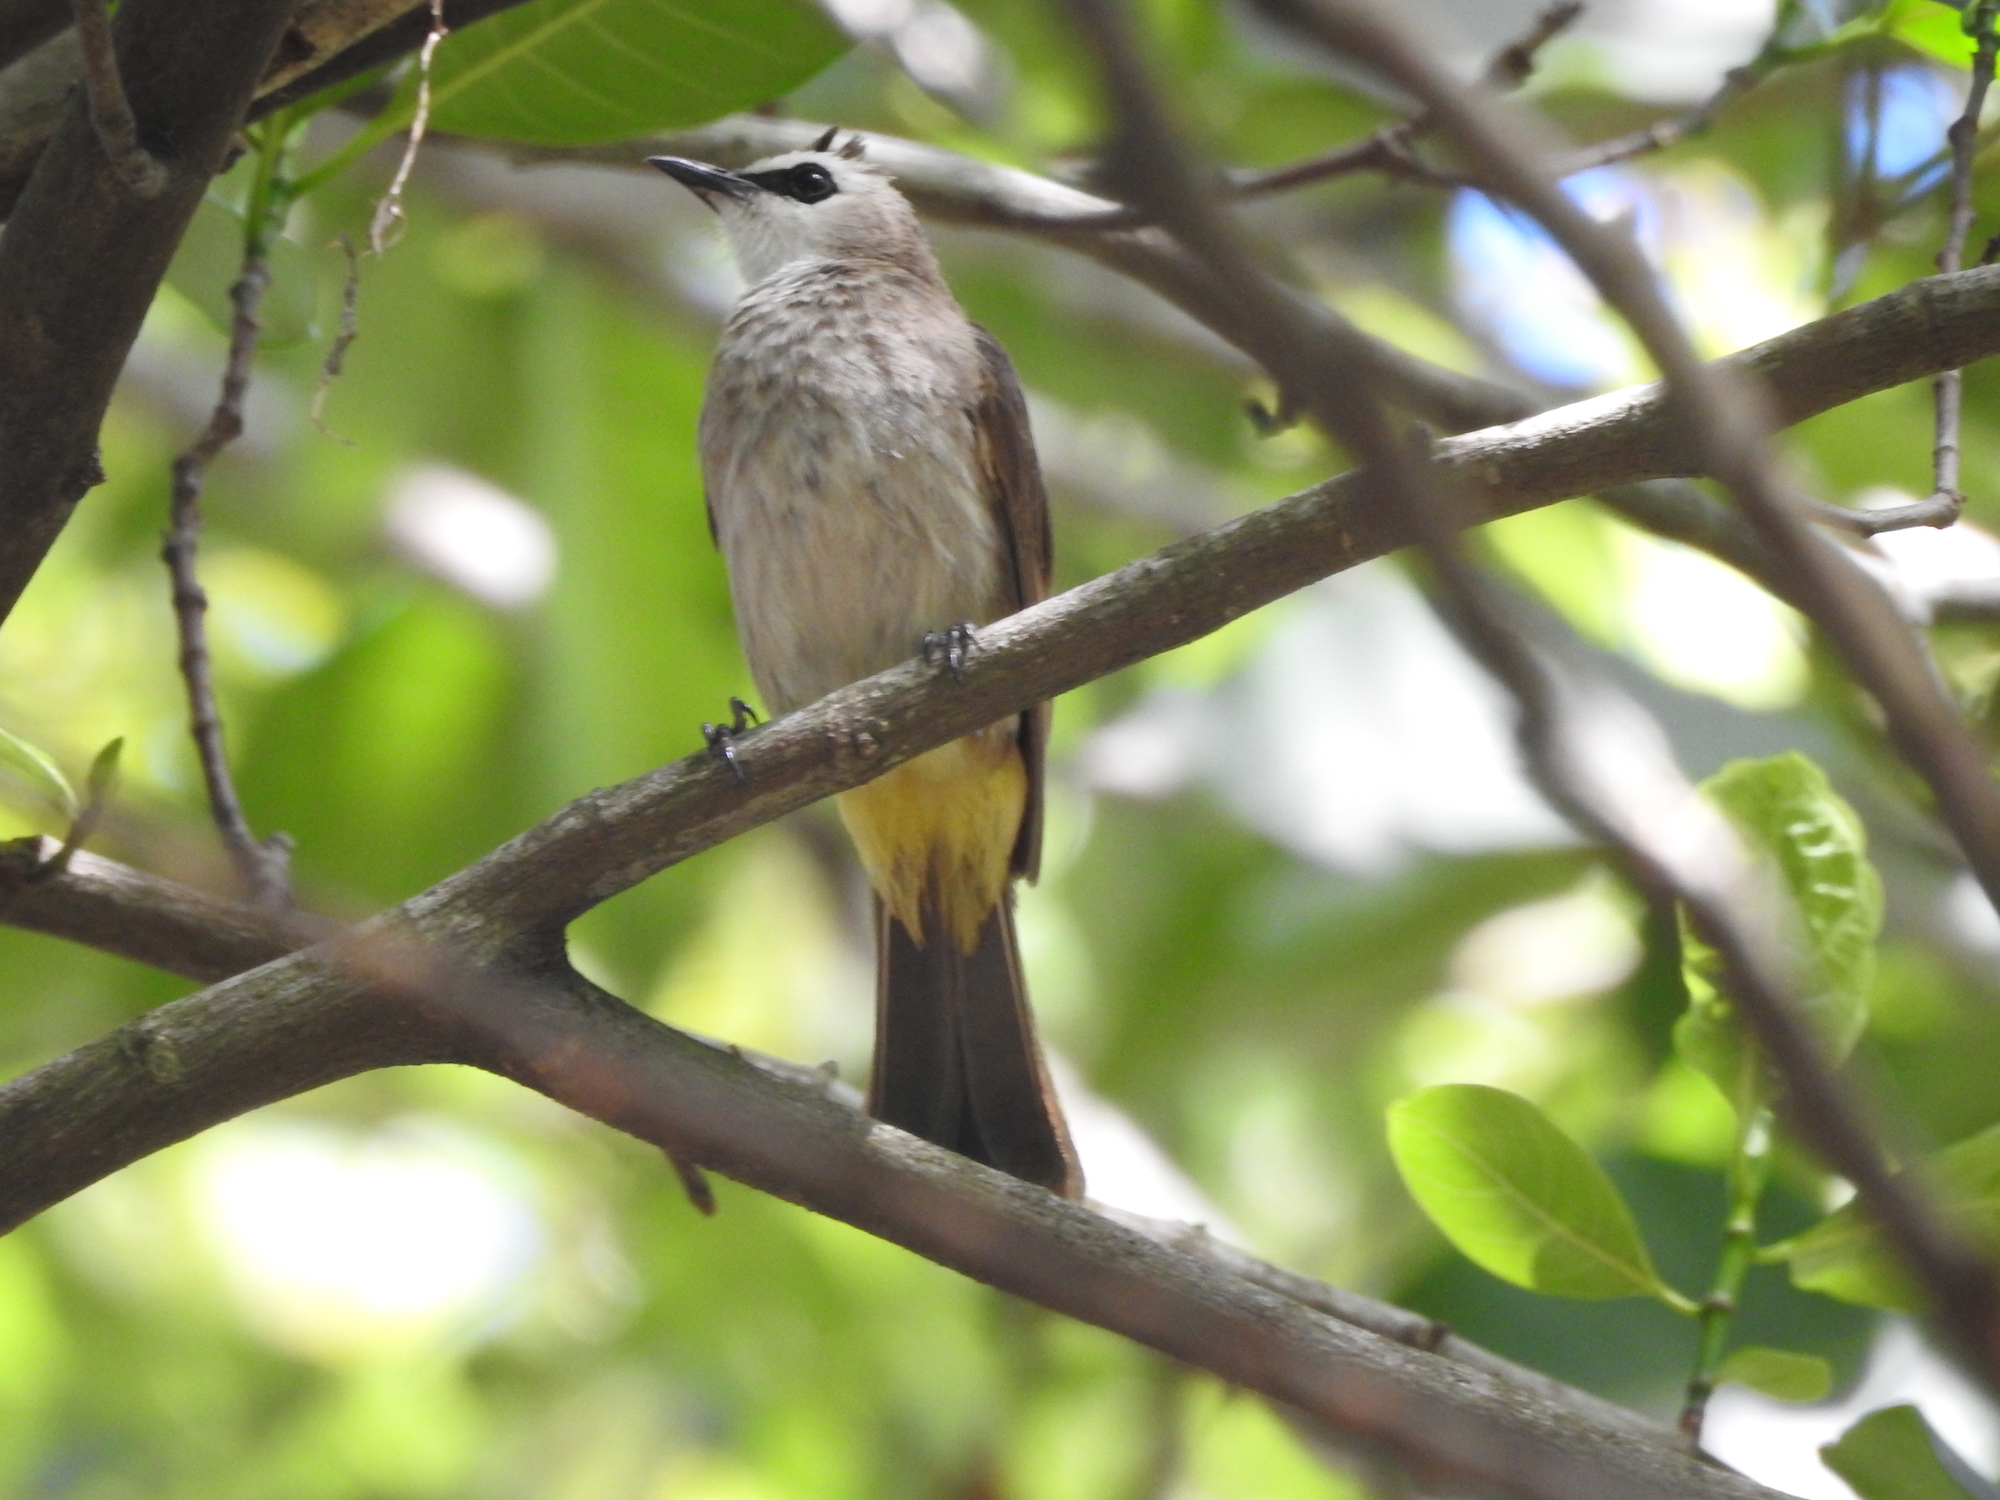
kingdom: Animalia
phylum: Chordata
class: Aves
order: Passeriformes
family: Pycnonotidae
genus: Pycnonotus
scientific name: Pycnonotus goiavier
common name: Yellow-vented bulbul
